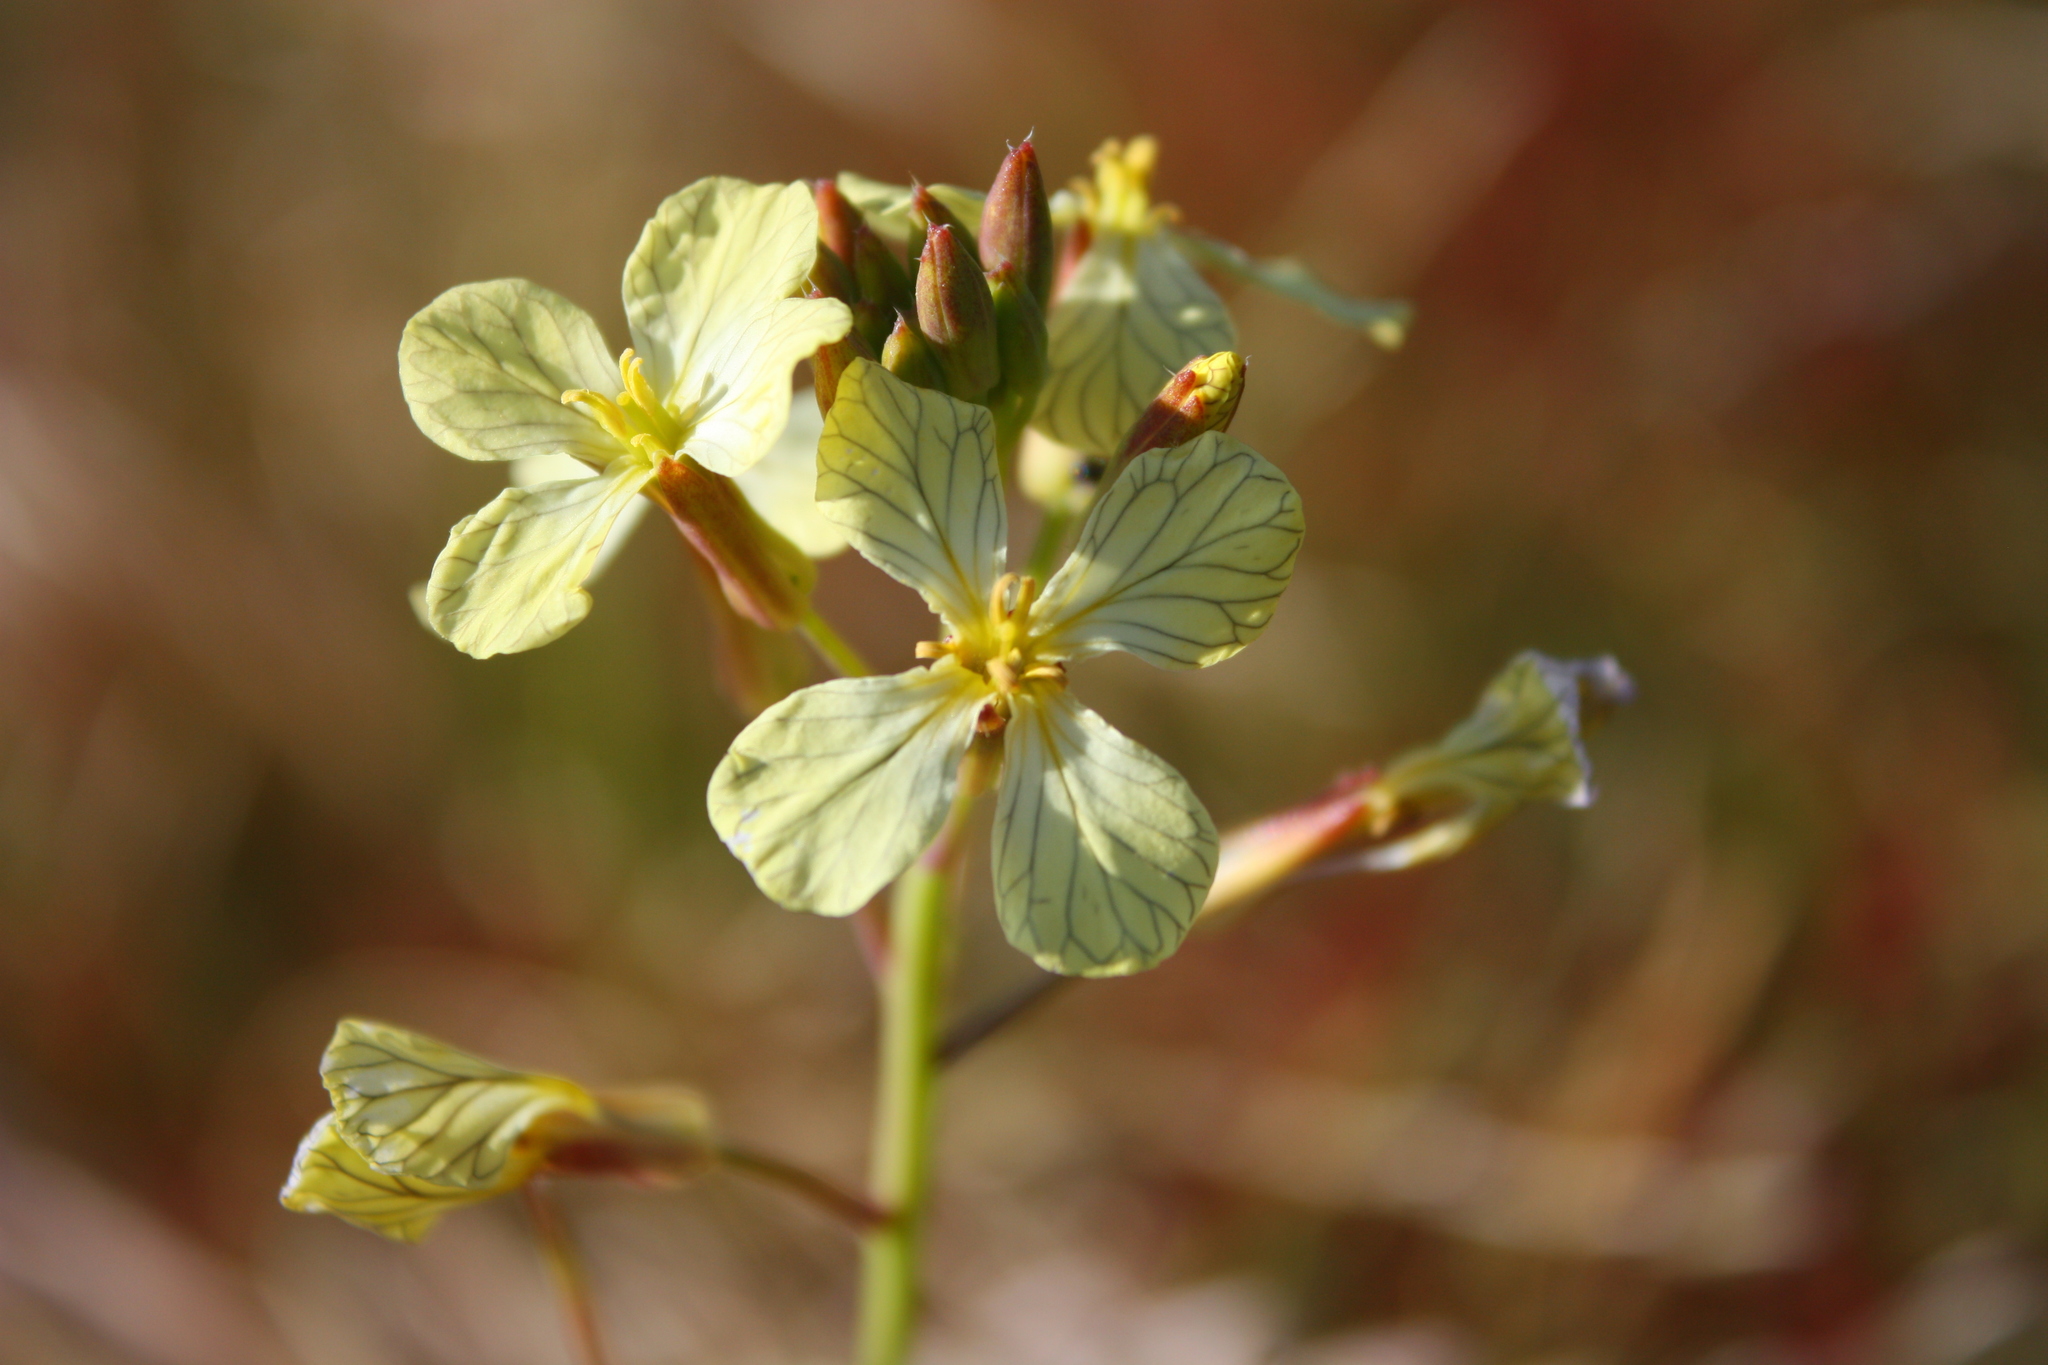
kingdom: Plantae
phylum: Tracheophyta
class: Magnoliopsida
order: Brassicales
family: Brassicaceae
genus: Raphanus
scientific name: Raphanus raphanistrum
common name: Wild radish
